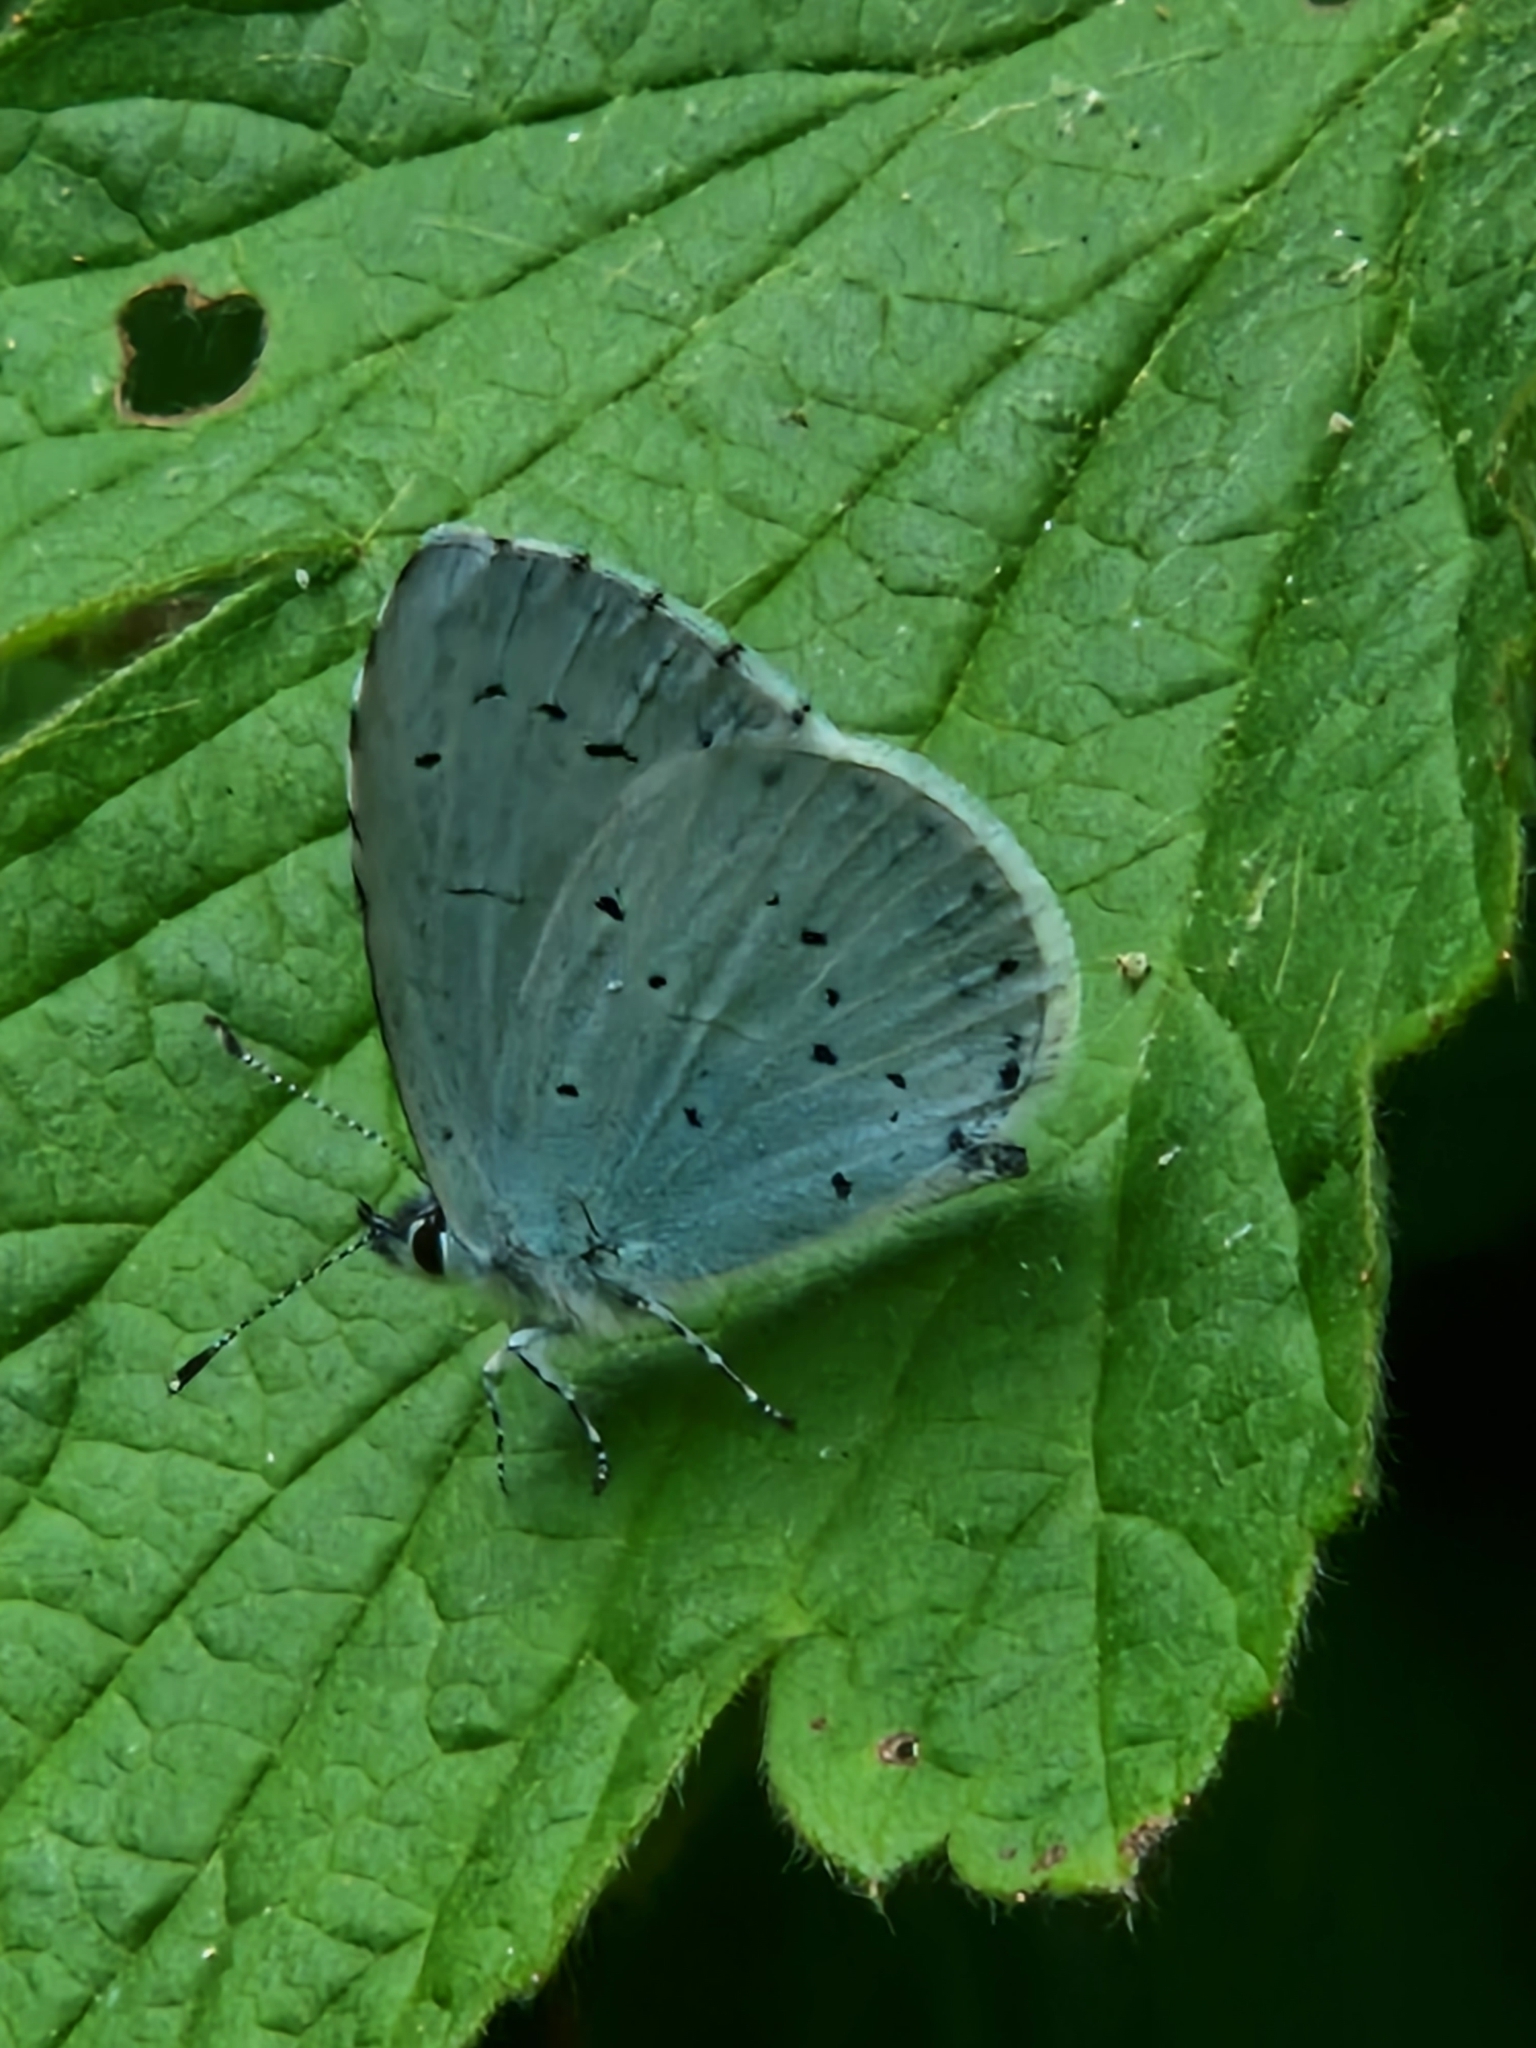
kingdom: Animalia
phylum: Arthropoda
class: Insecta
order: Lepidoptera
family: Lycaenidae
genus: Celastrina
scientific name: Celastrina argiolus
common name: Holly blue
